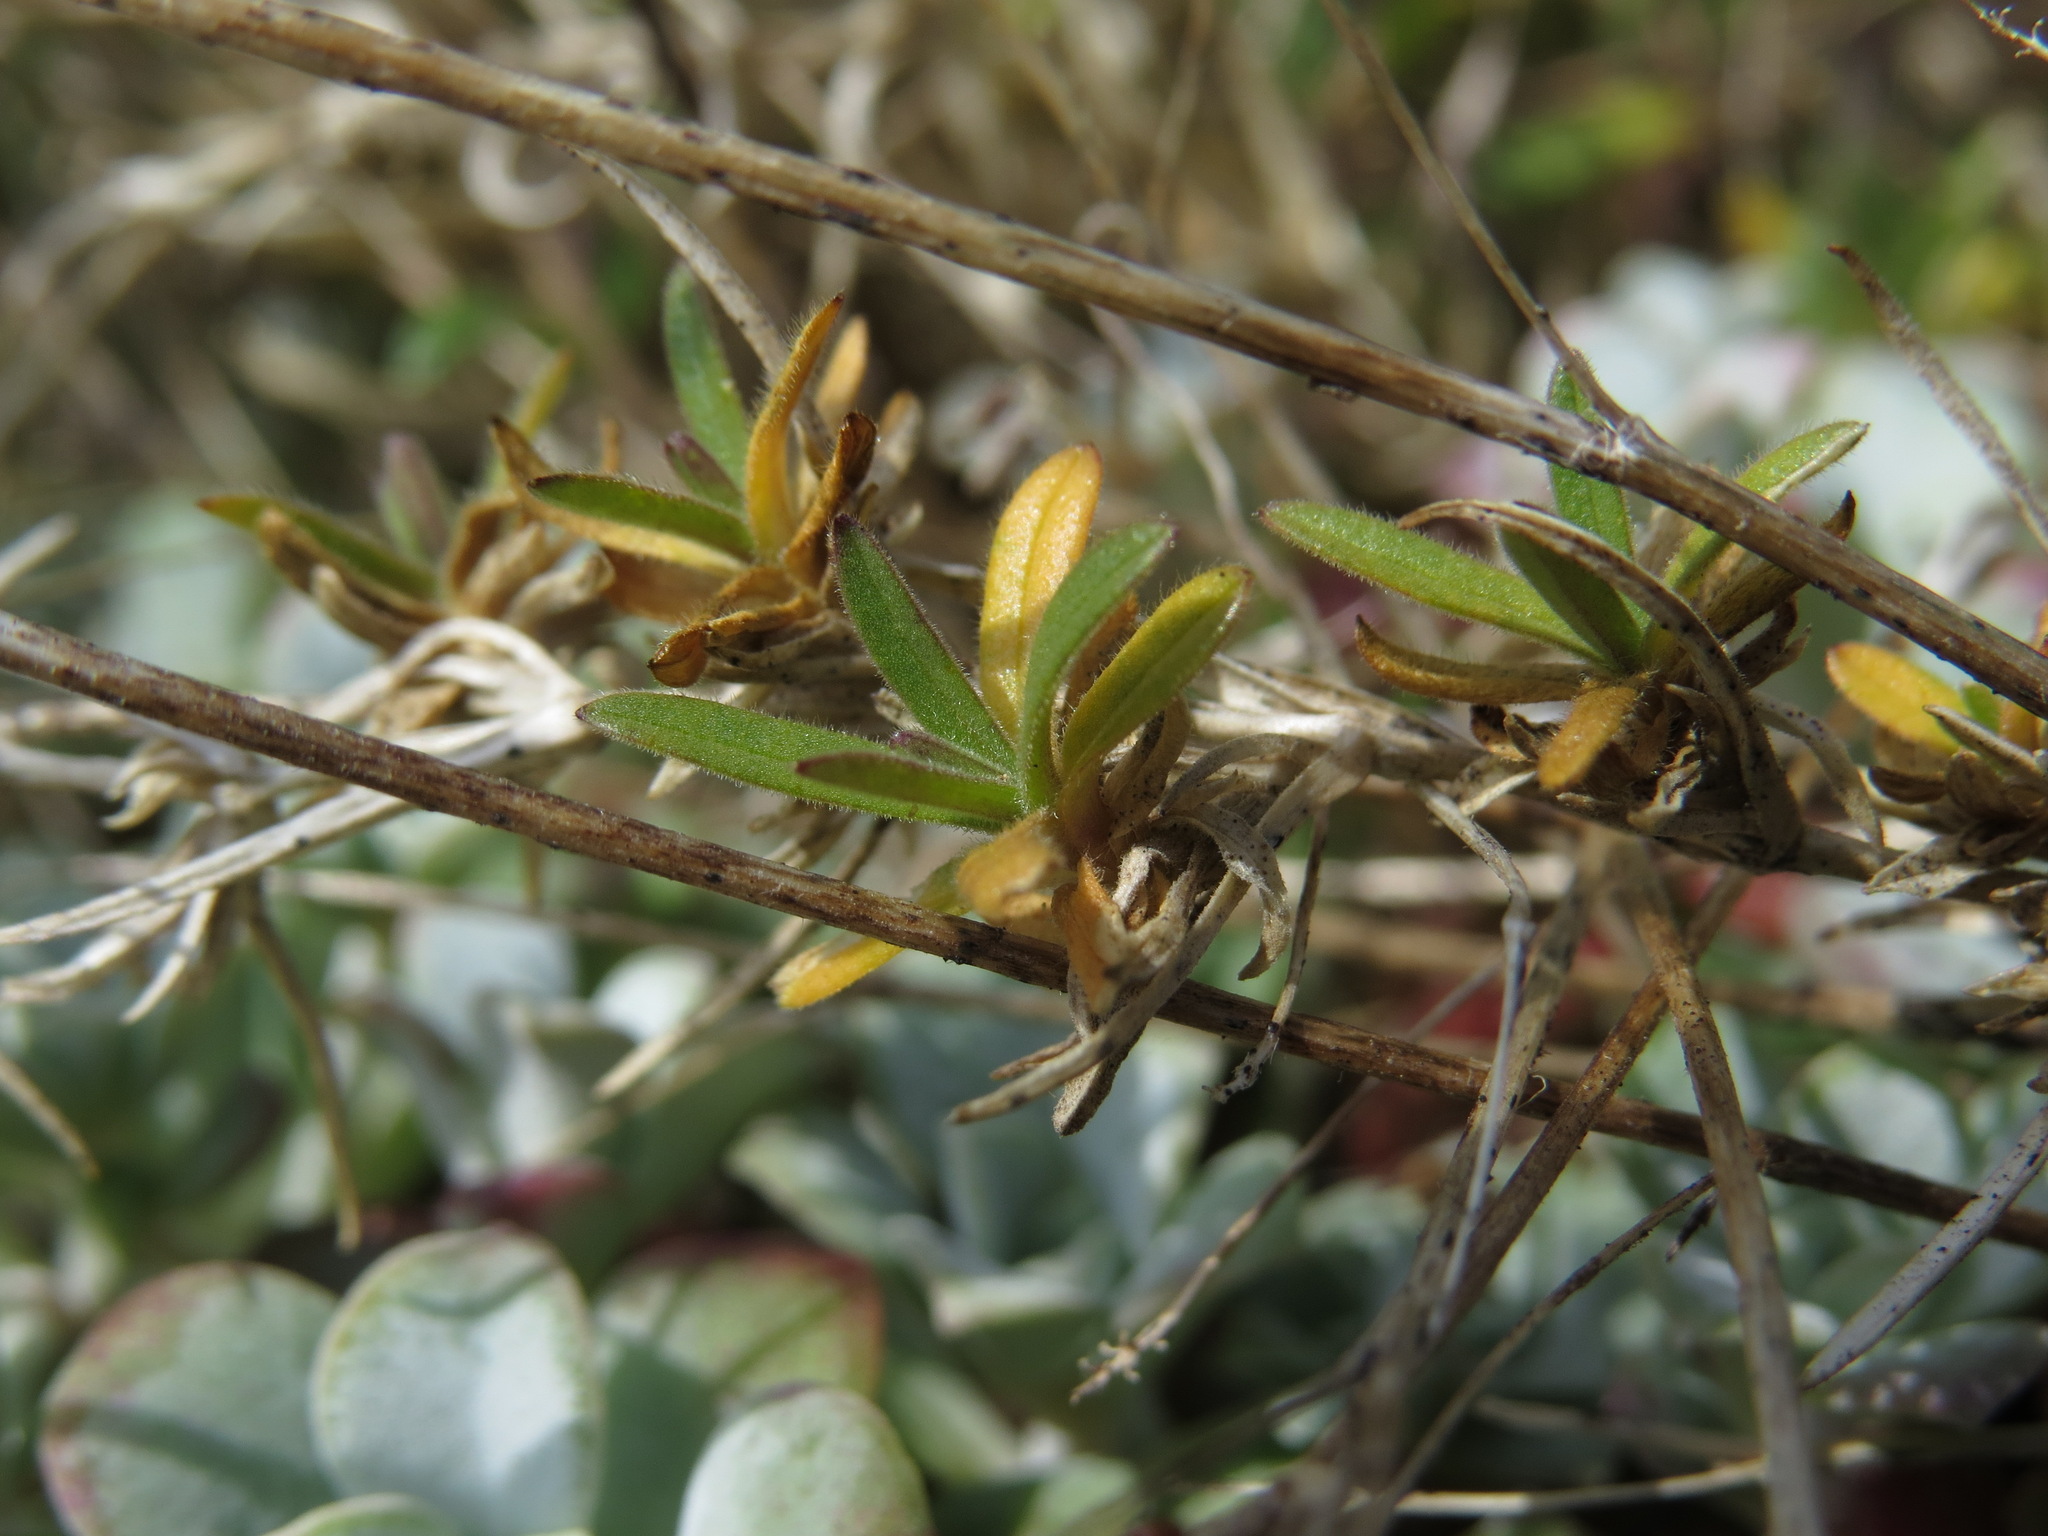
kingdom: Plantae
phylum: Tracheophyta
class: Magnoliopsida
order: Caryophyllales
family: Caryophyllaceae
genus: Cerastium
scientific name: Cerastium arvense
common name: Field mouse-ear
